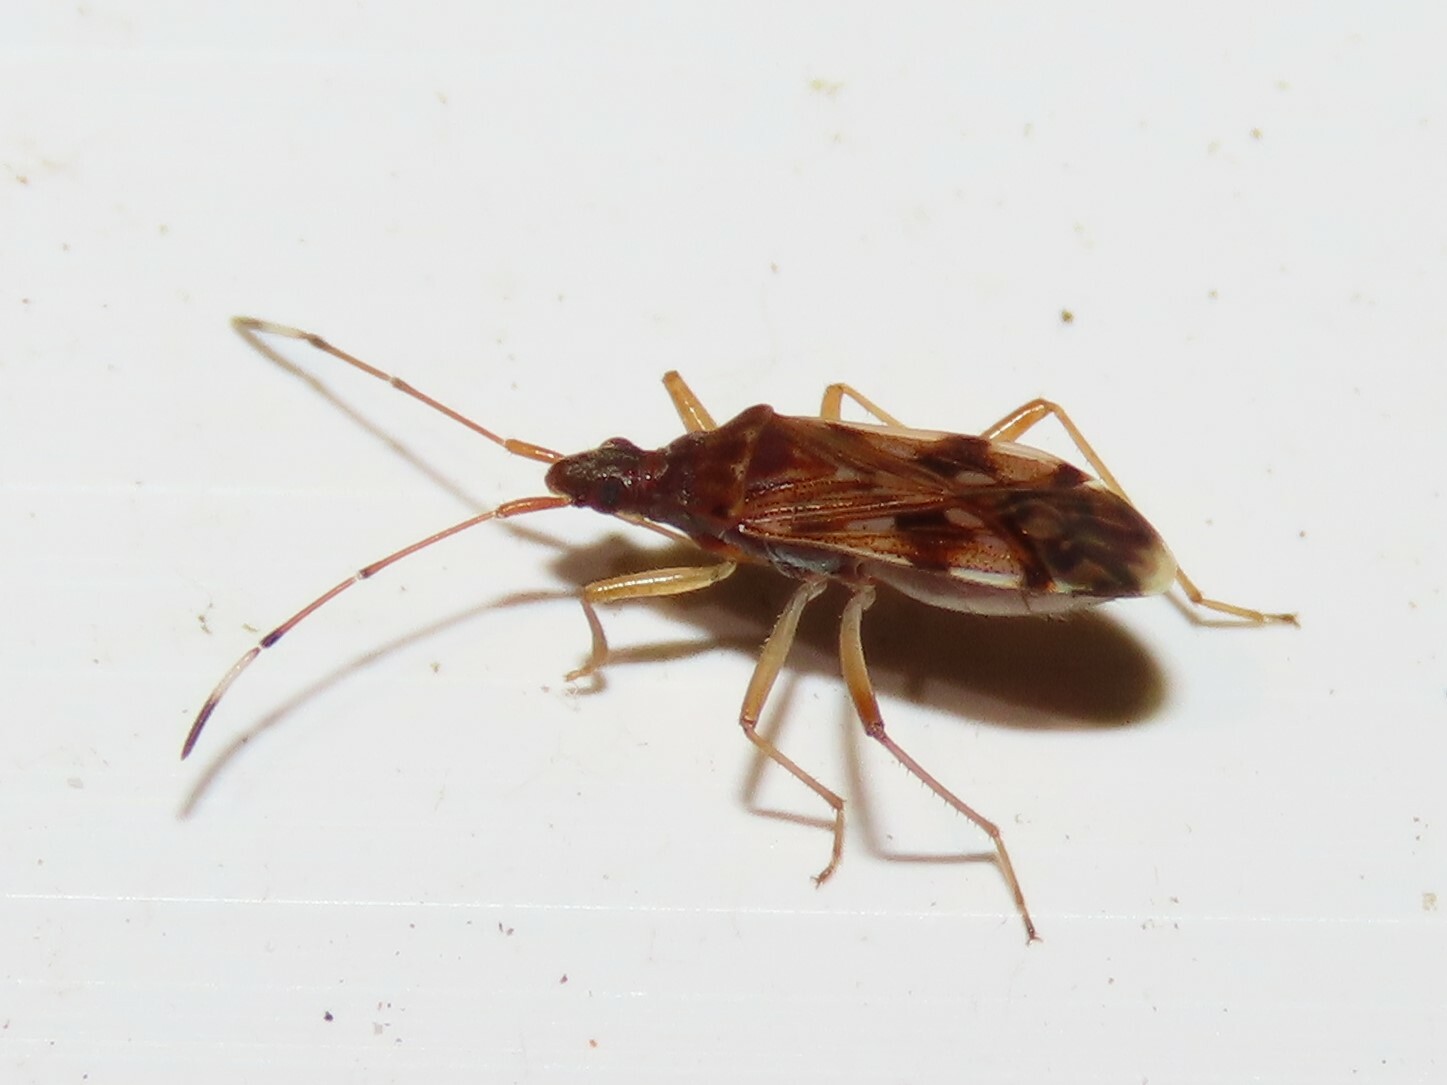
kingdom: Animalia
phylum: Arthropoda
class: Insecta
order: Hemiptera
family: Rhyparochromidae
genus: Ozophora
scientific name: Ozophora picturata
